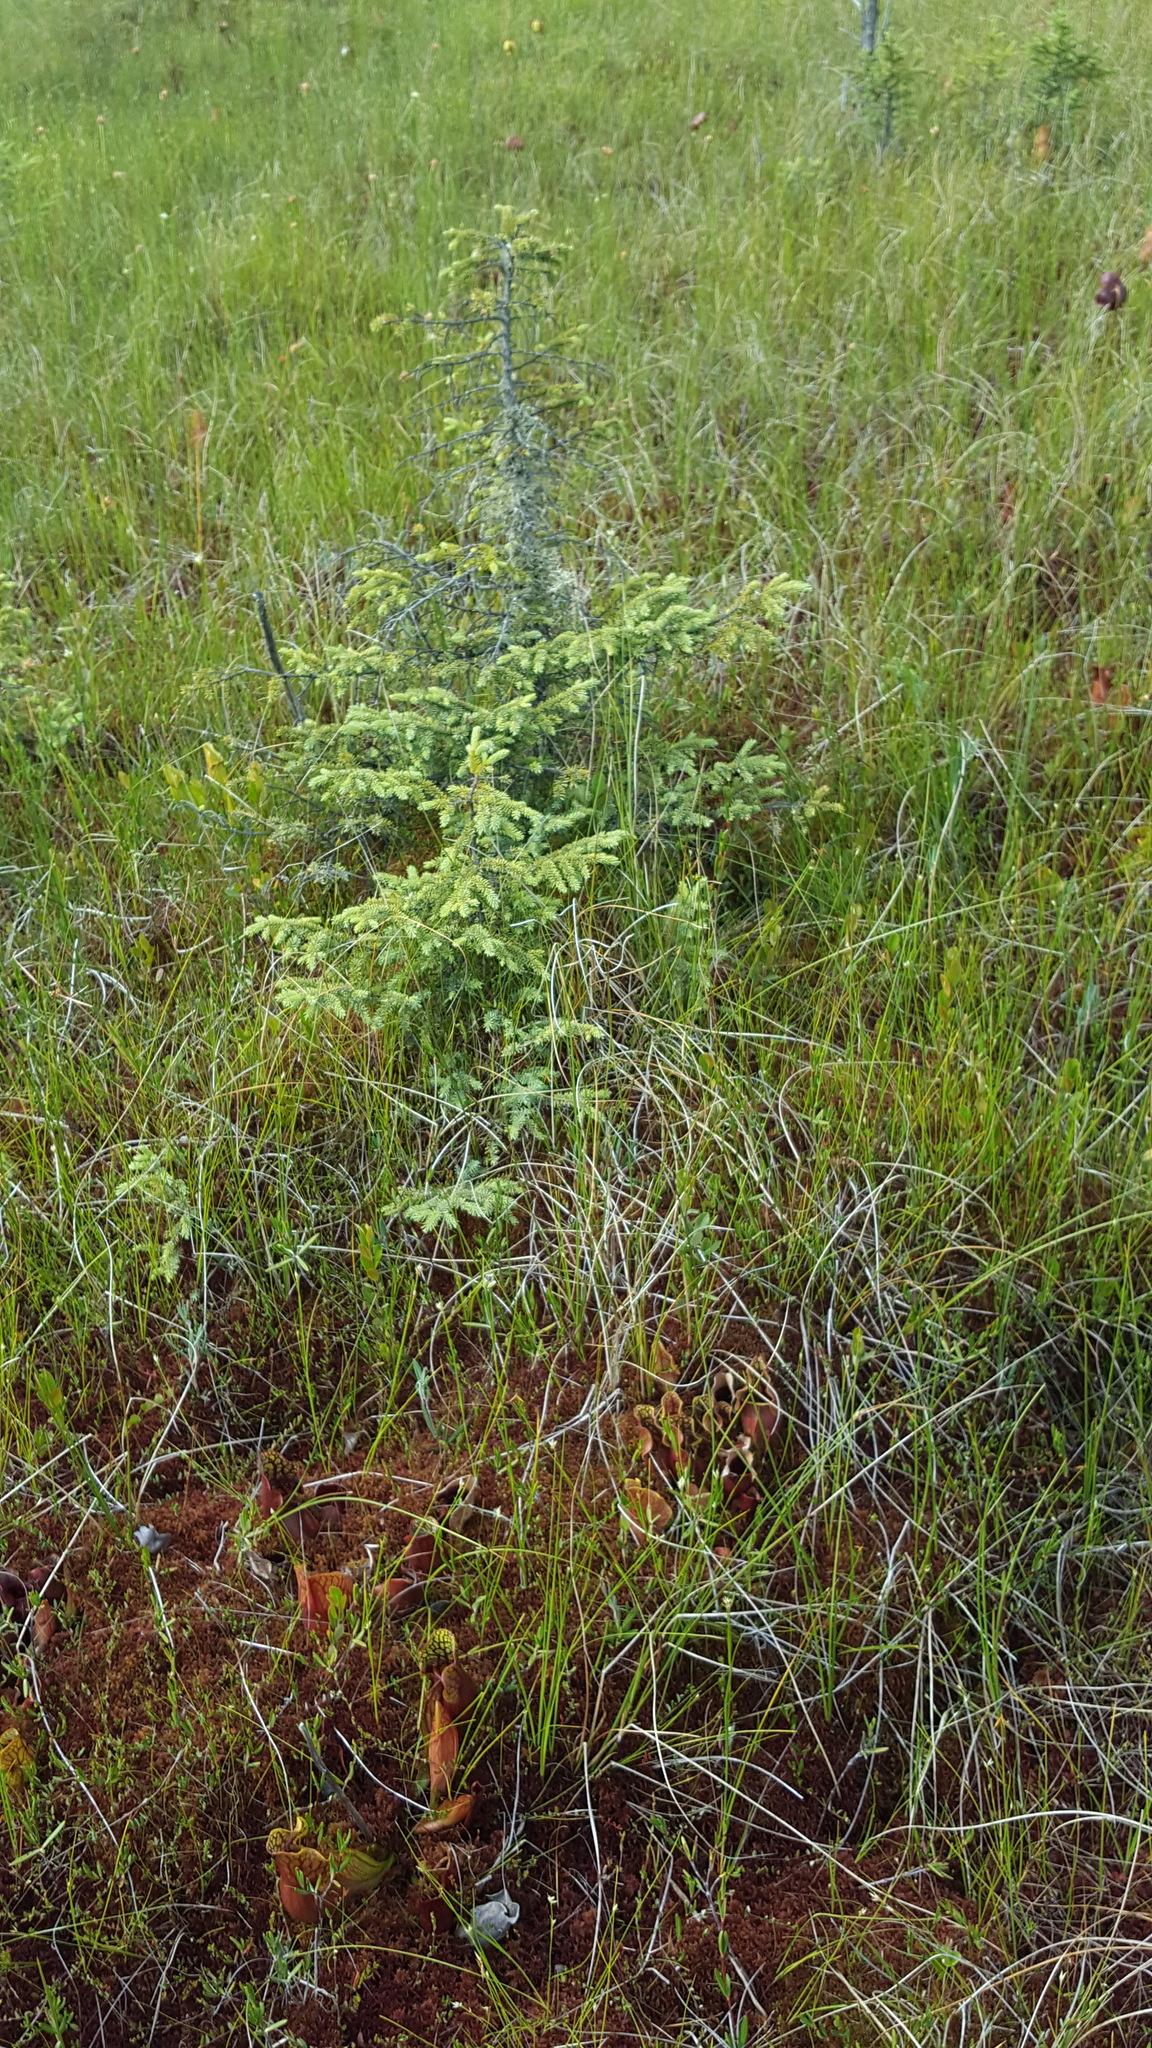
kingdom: Plantae
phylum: Tracheophyta
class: Pinopsida
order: Pinales
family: Pinaceae
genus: Picea
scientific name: Picea mariana
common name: Black spruce
